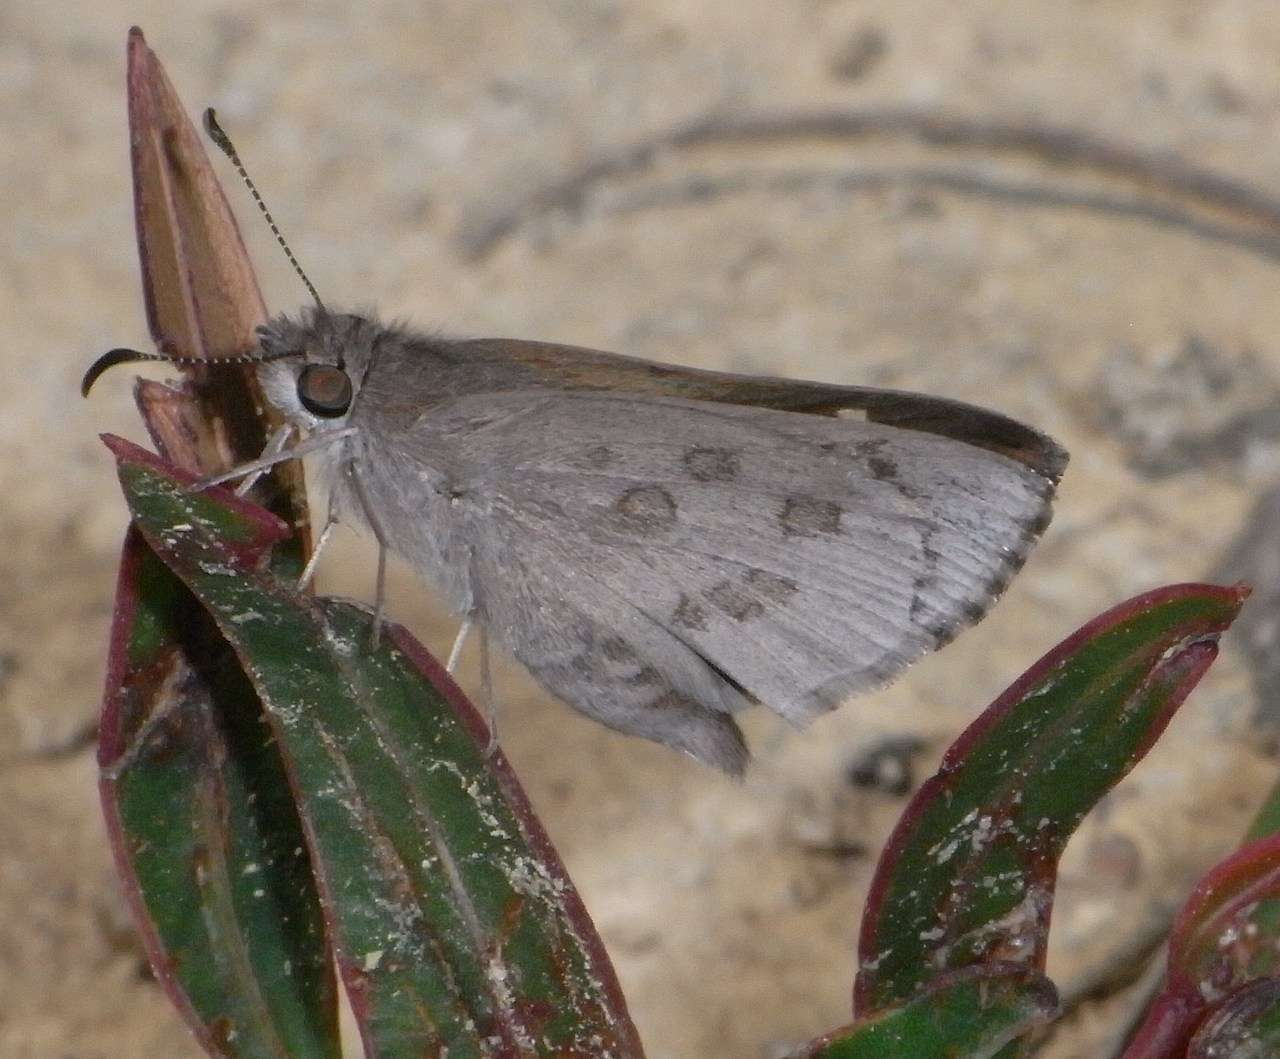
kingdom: Animalia
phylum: Arthropoda
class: Insecta
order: Lepidoptera
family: Hesperiidae
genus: Mesodina
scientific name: Mesodina halyzia
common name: Eastern iris-skipper
